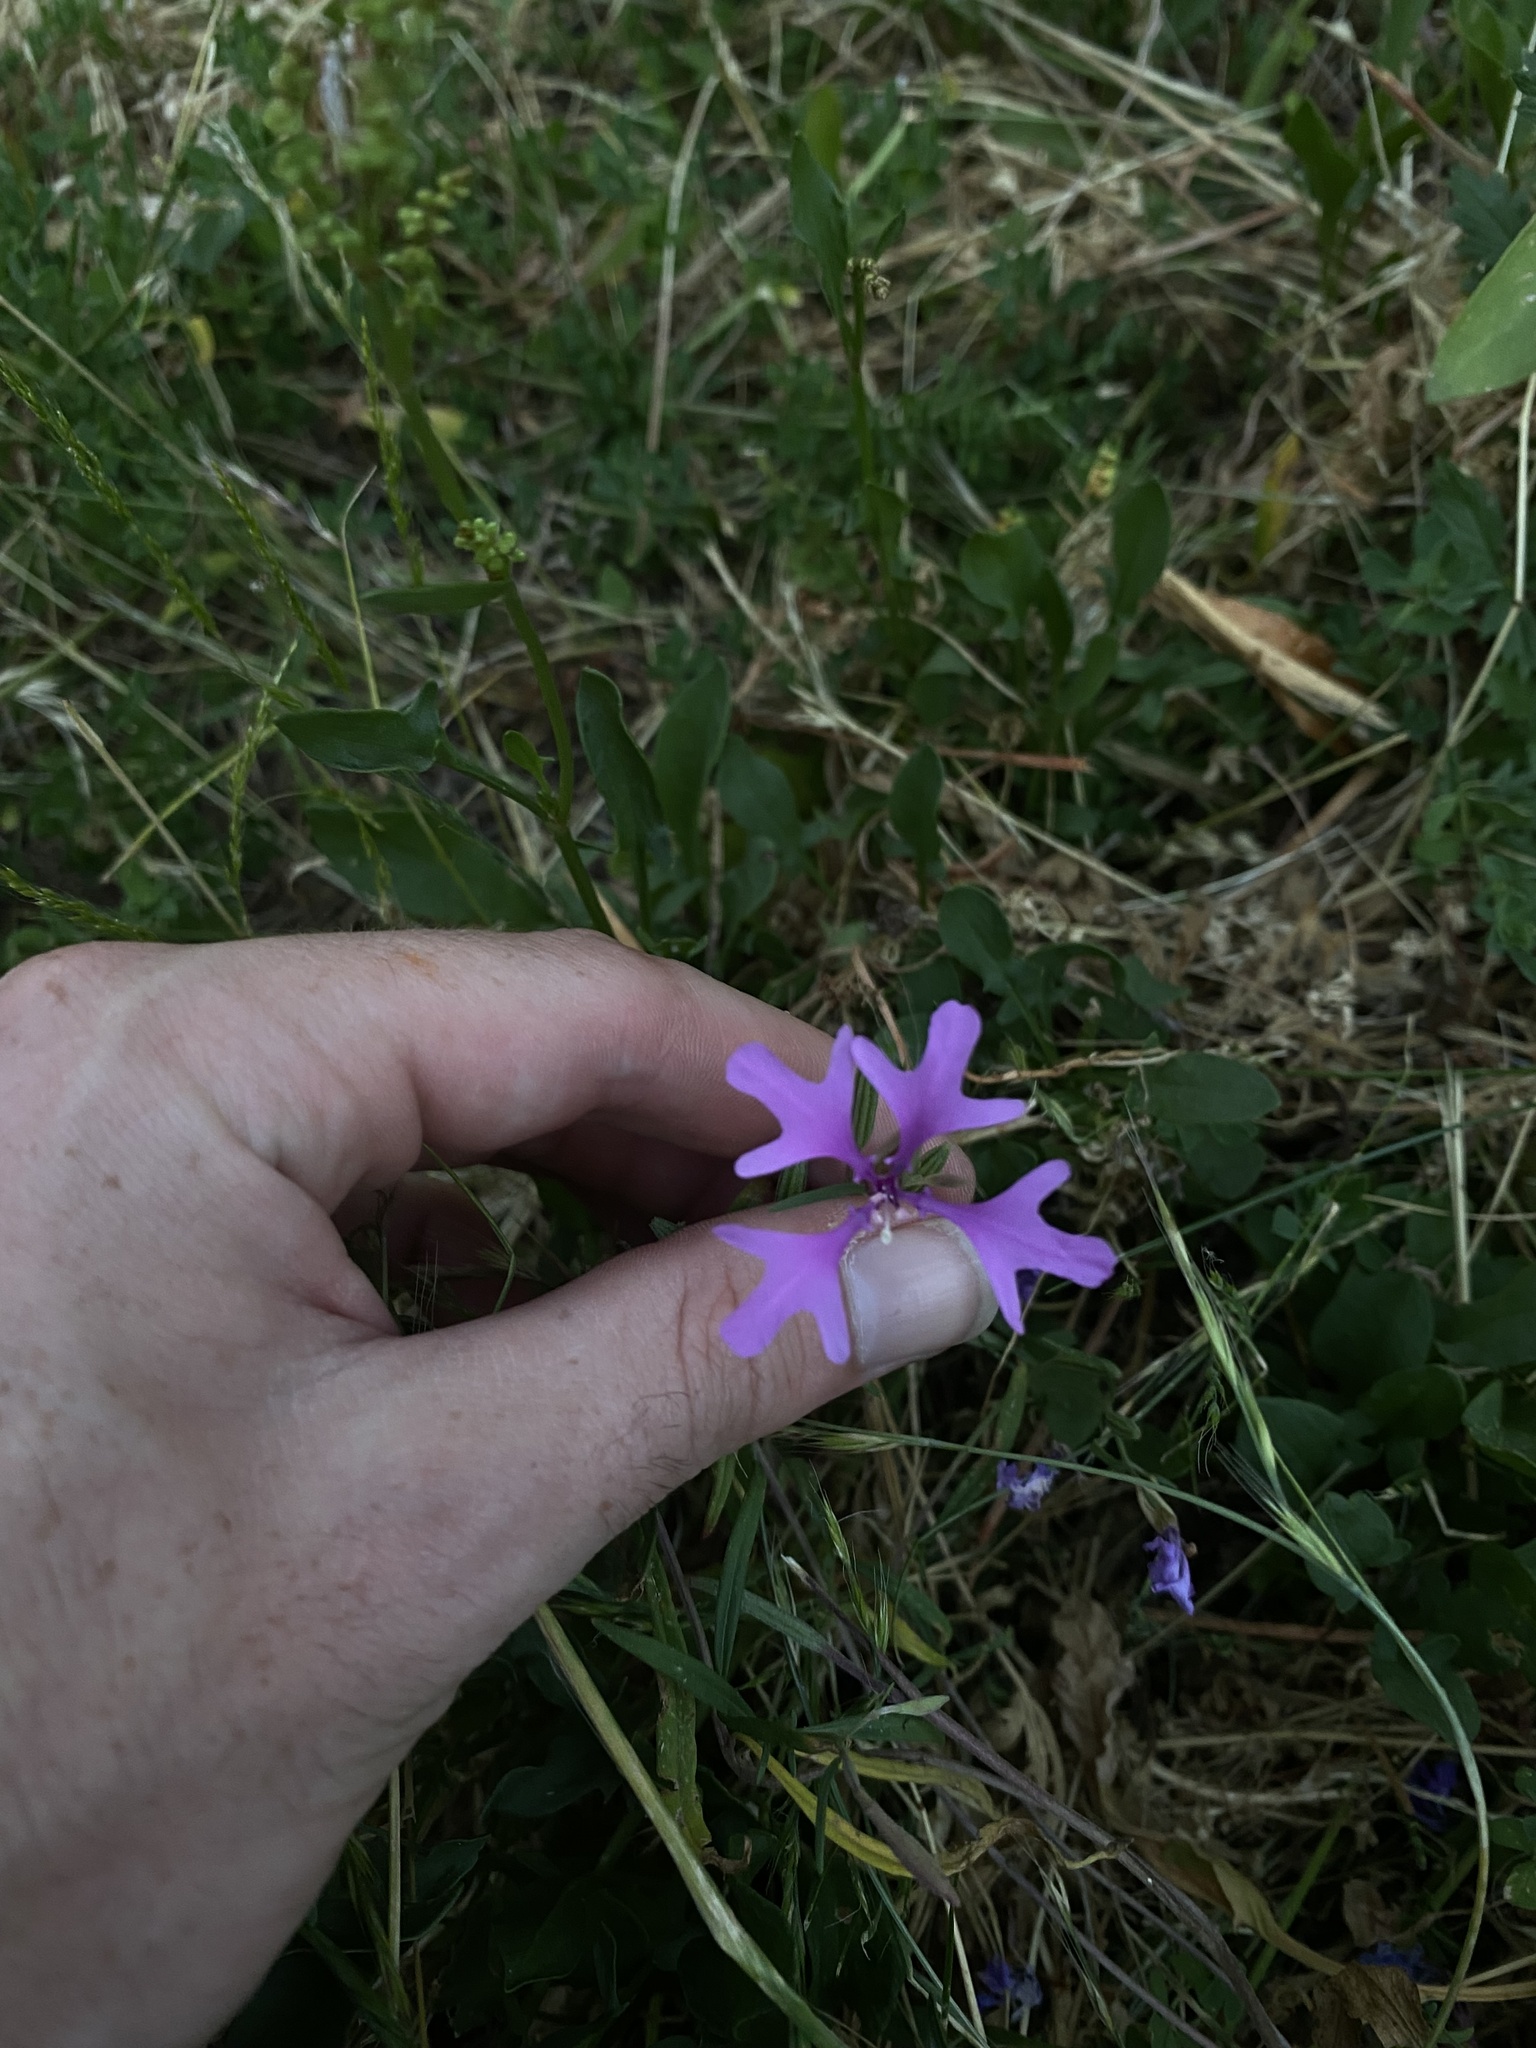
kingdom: Plantae
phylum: Tracheophyta
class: Magnoliopsida
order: Myrtales
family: Onagraceae
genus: Clarkia
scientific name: Clarkia pulchella
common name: Deer horn
